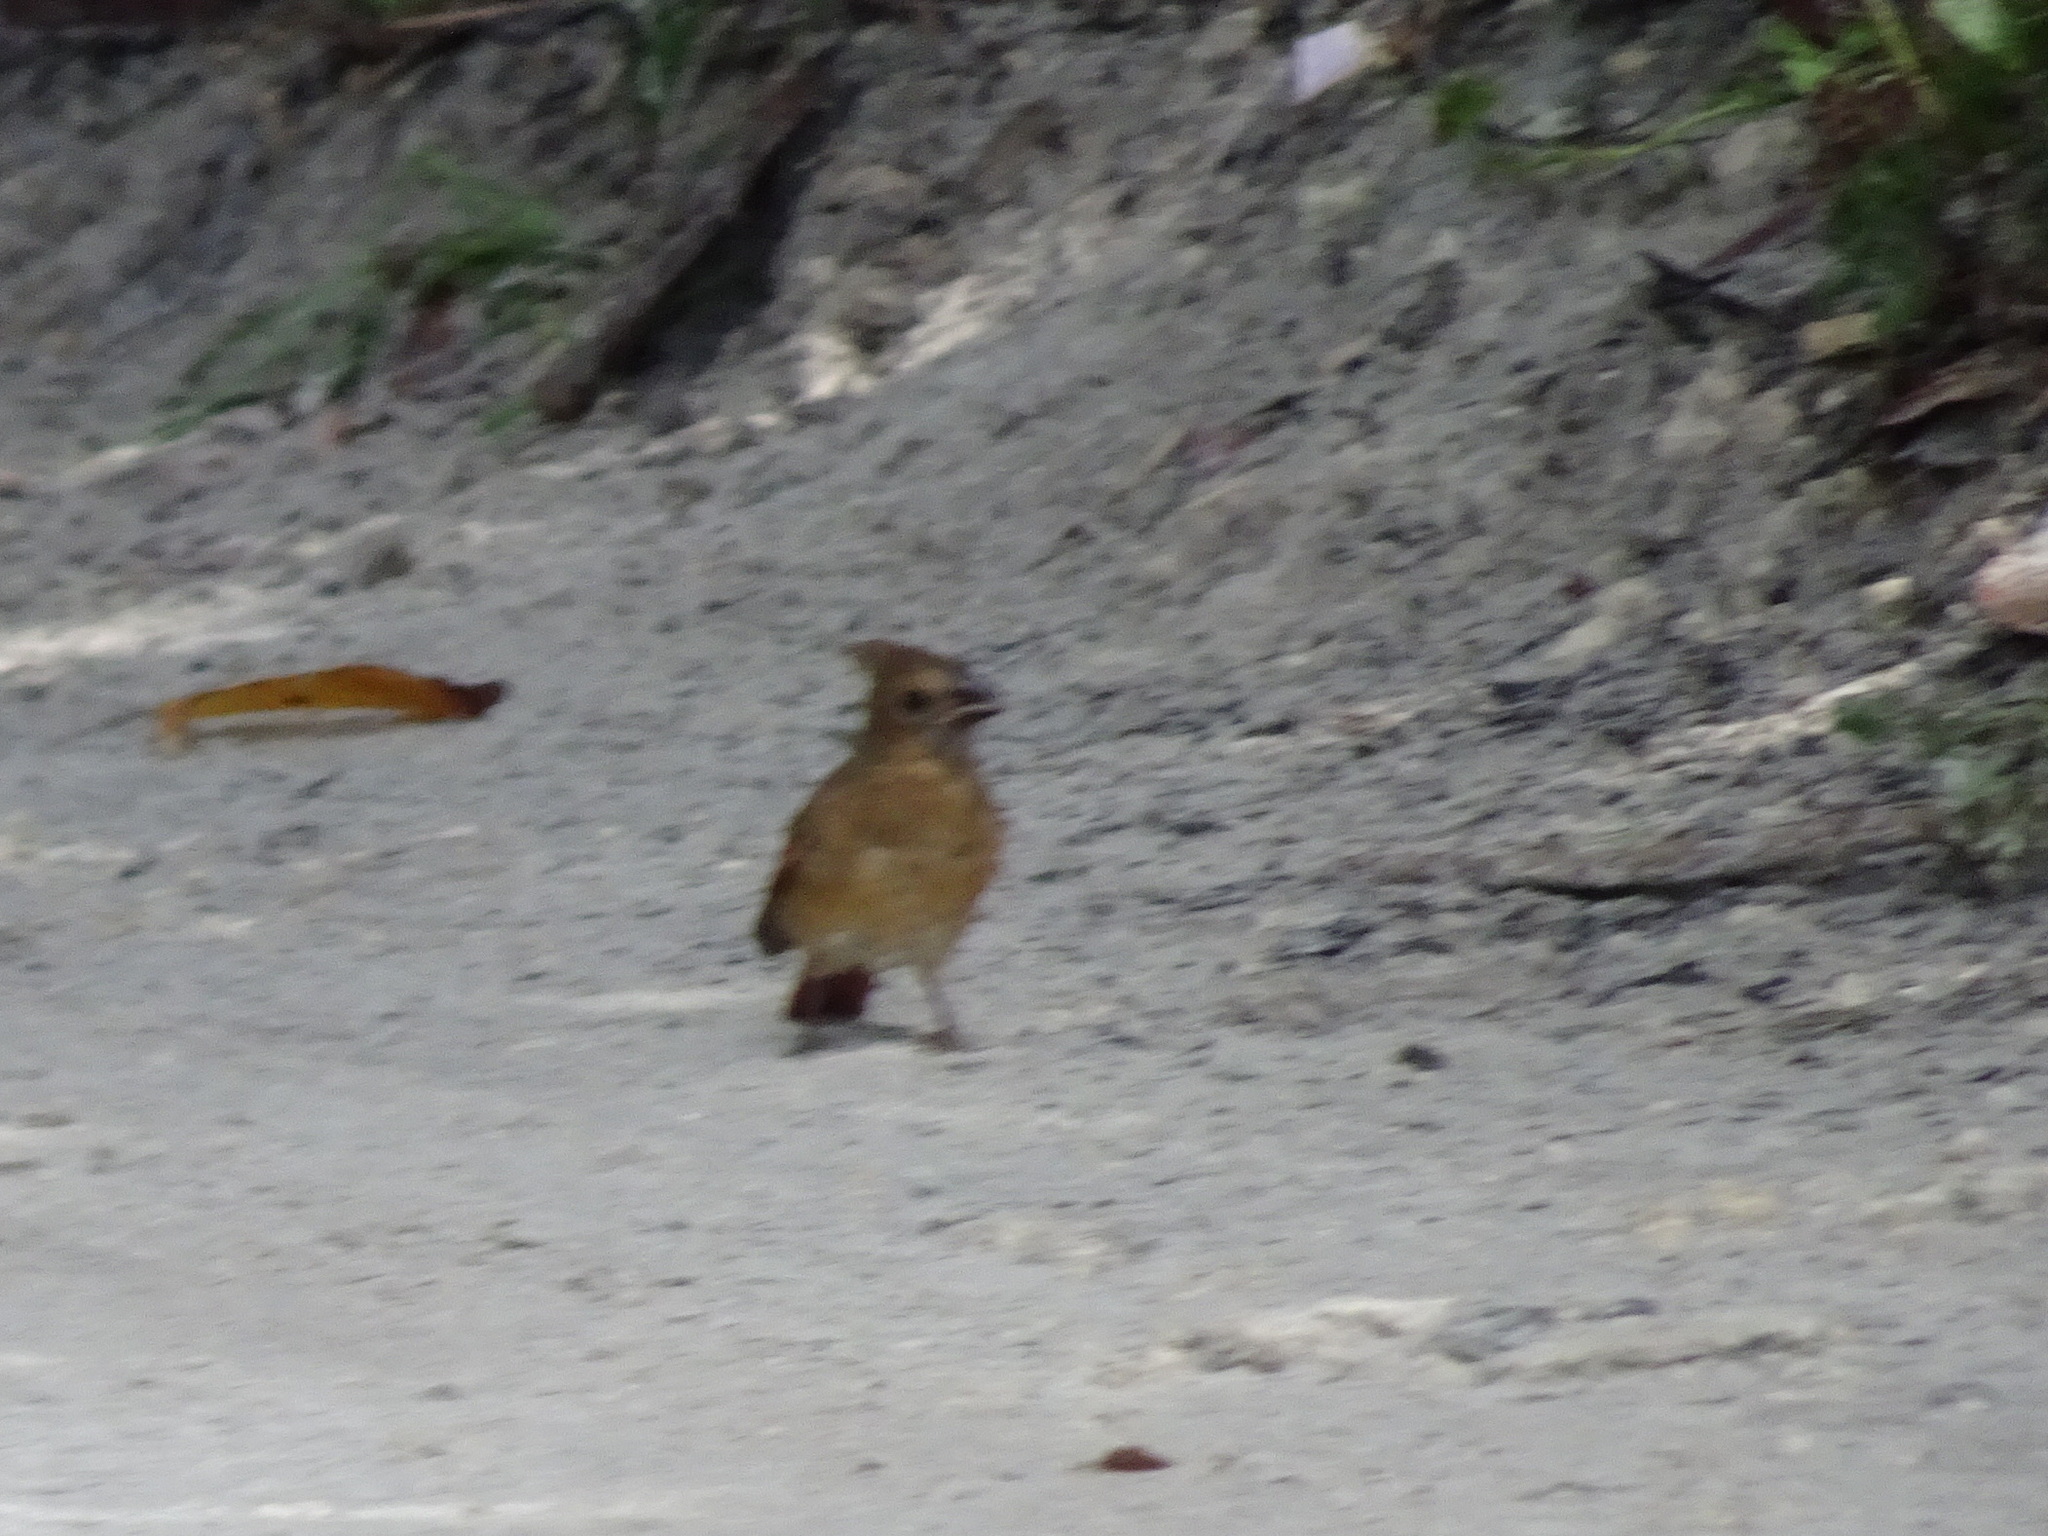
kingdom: Animalia
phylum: Chordata
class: Aves
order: Passeriformes
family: Cardinalidae
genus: Cardinalis
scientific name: Cardinalis cardinalis
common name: Northern cardinal
